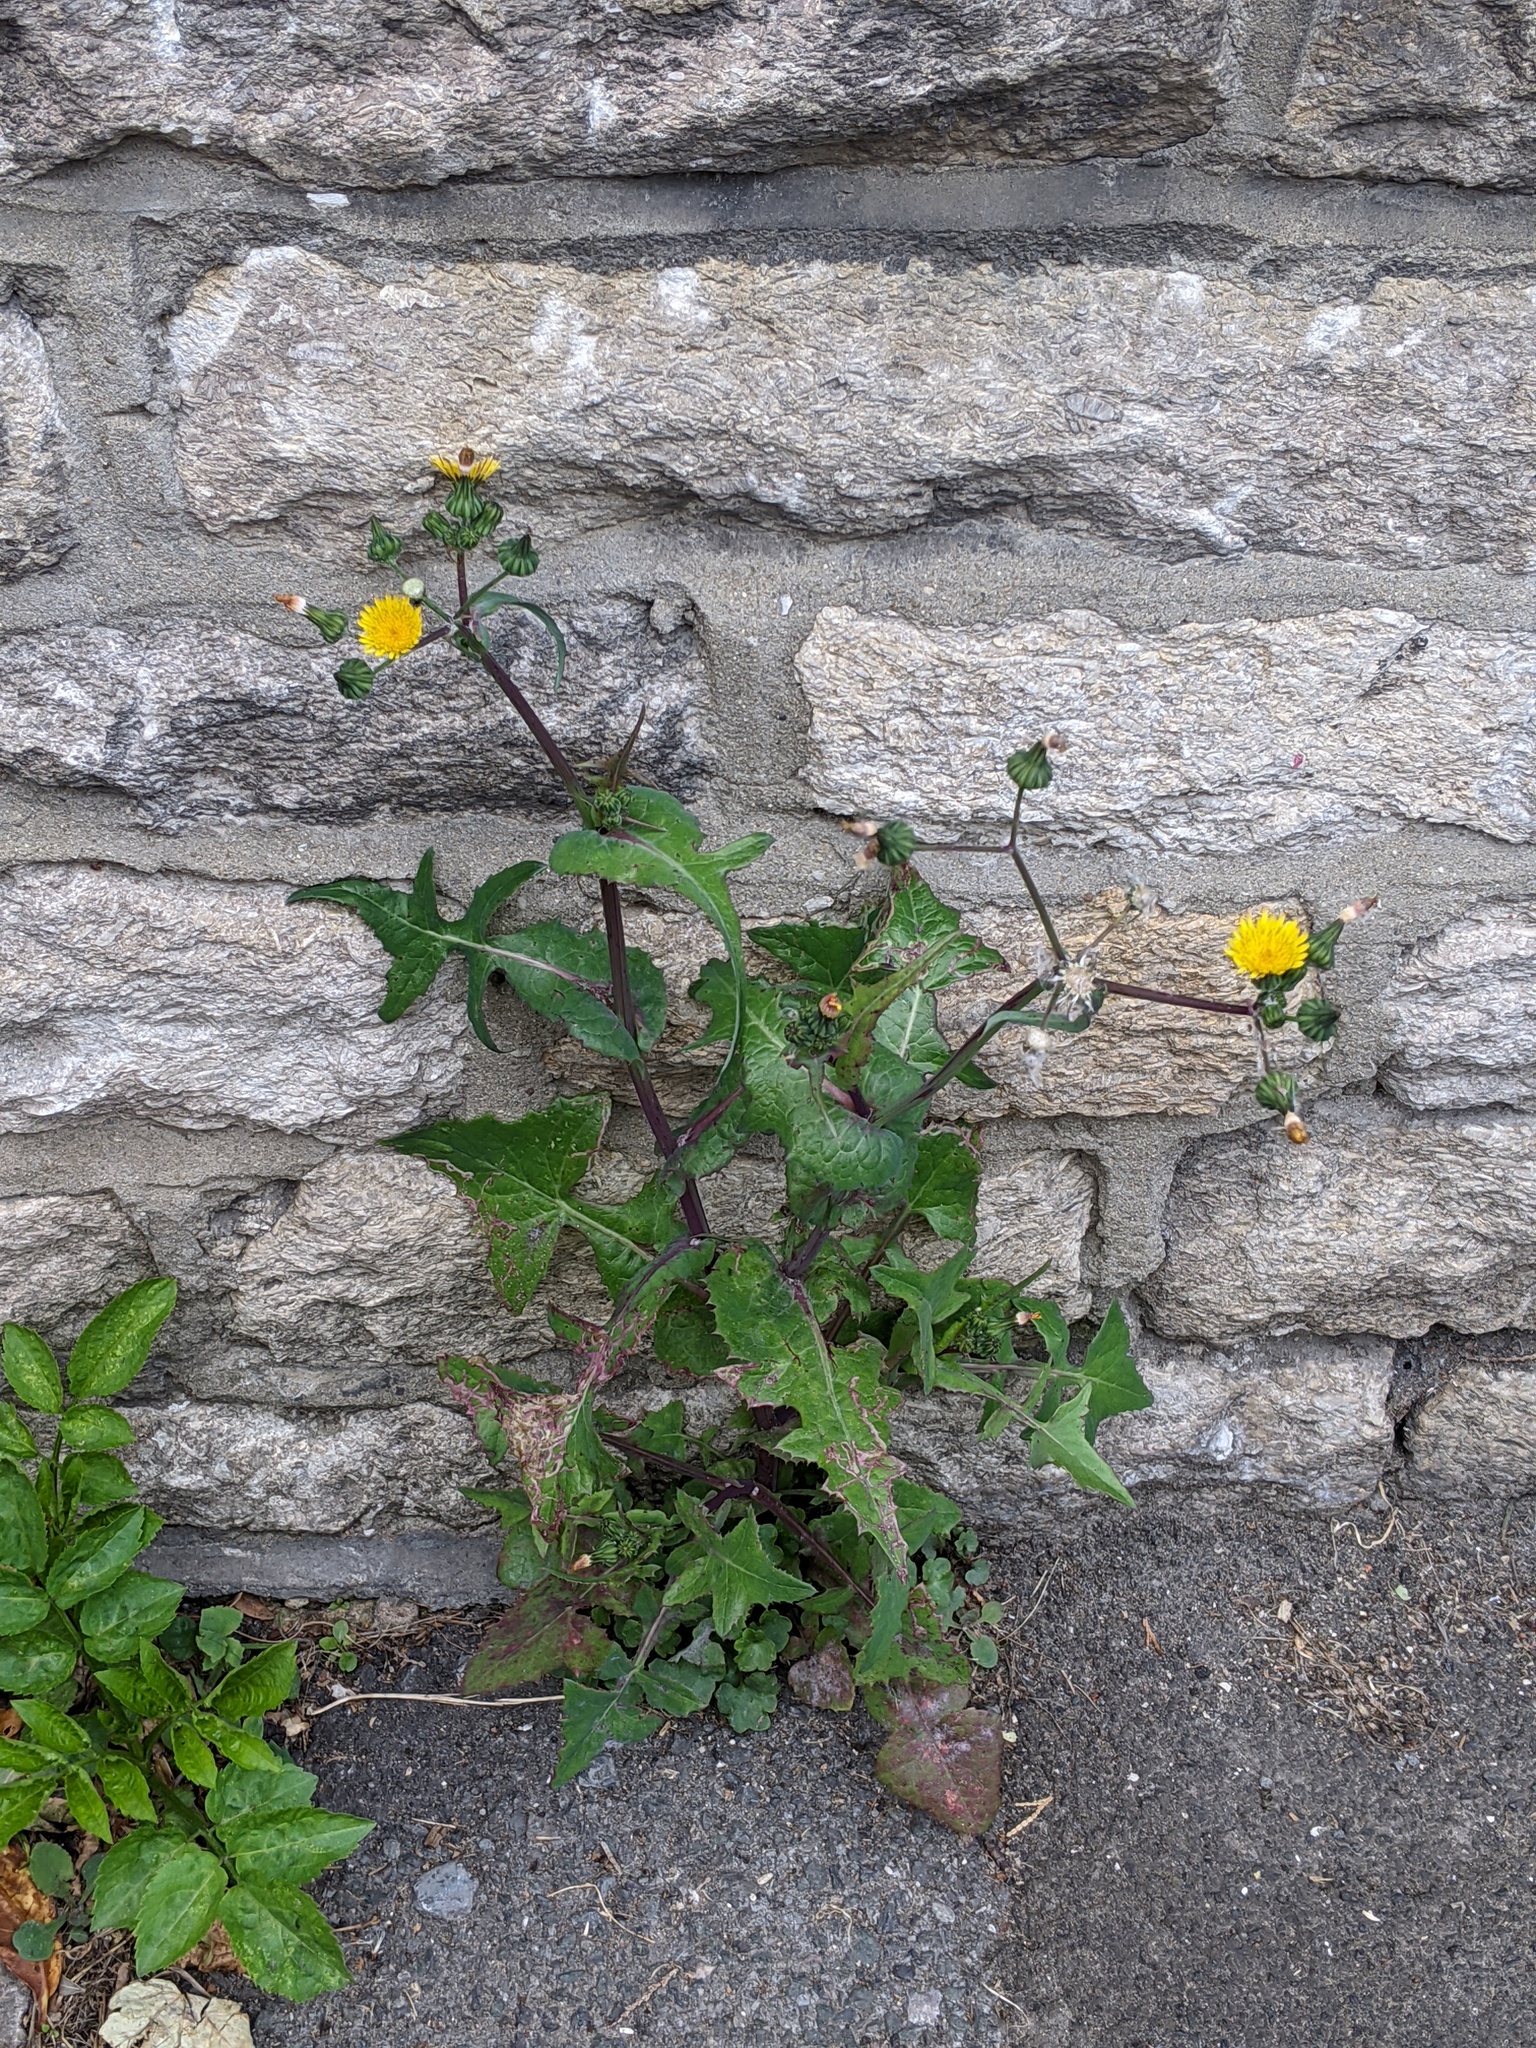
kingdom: Plantae
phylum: Tracheophyta
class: Magnoliopsida
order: Asterales
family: Asteraceae
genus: Sonchus
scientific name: Sonchus oleraceus
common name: Common sowthistle
